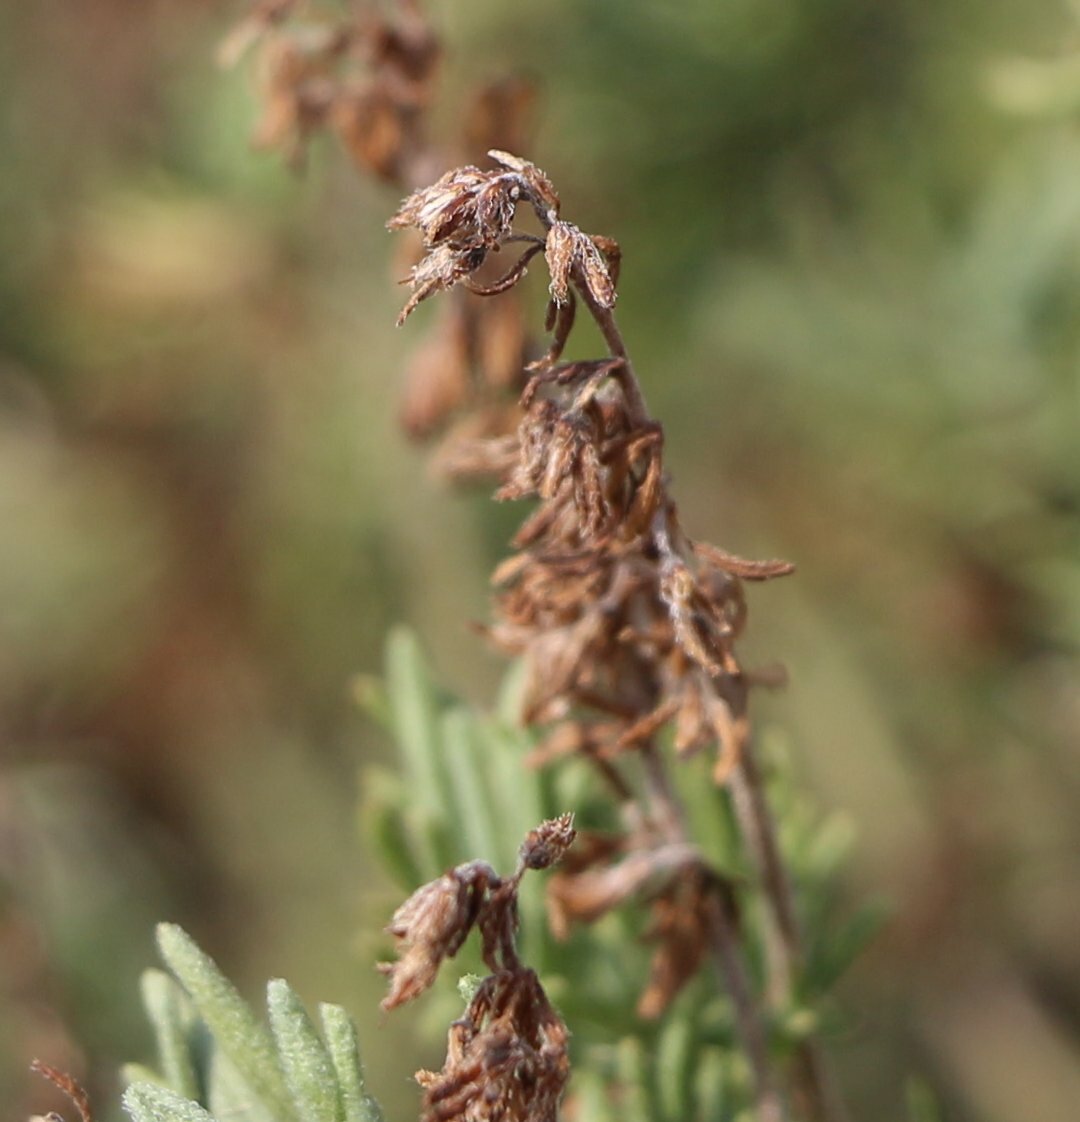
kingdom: Plantae
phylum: Tracheophyta
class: Magnoliopsida
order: Lamiales
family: Plantaginaceae
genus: Veronica
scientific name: Veronica capsellicarpa
